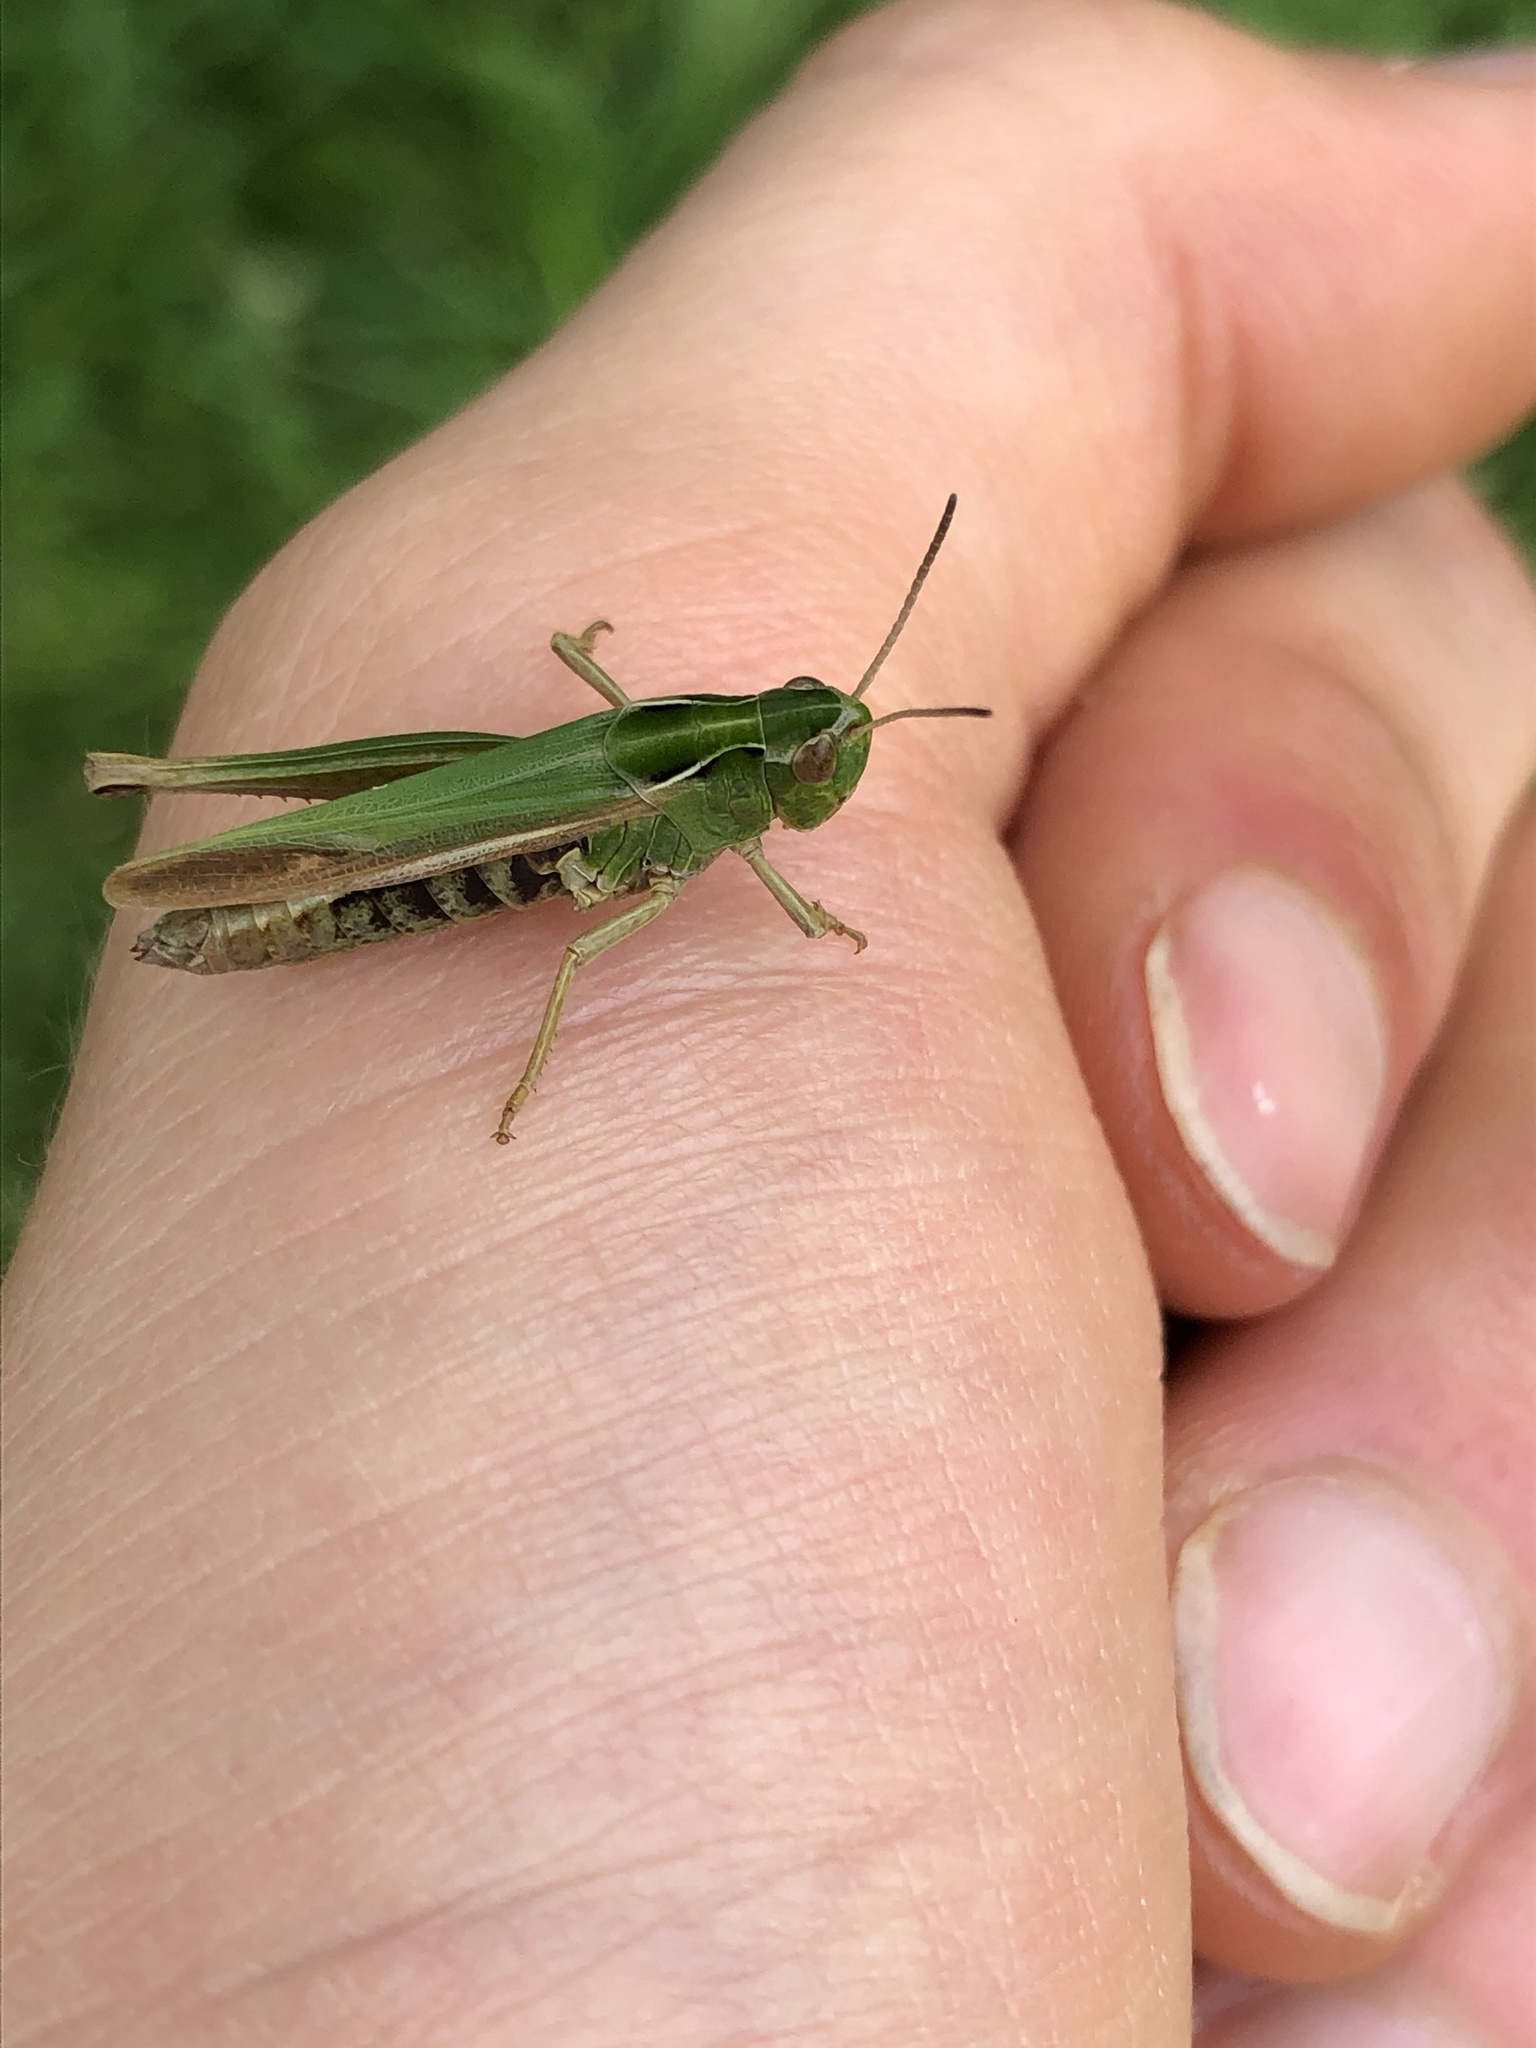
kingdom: Animalia
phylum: Arthropoda
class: Insecta
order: Orthoptera
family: Acrididae
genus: Omocestus
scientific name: Omocestus viridulus
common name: Common green grasshopper
